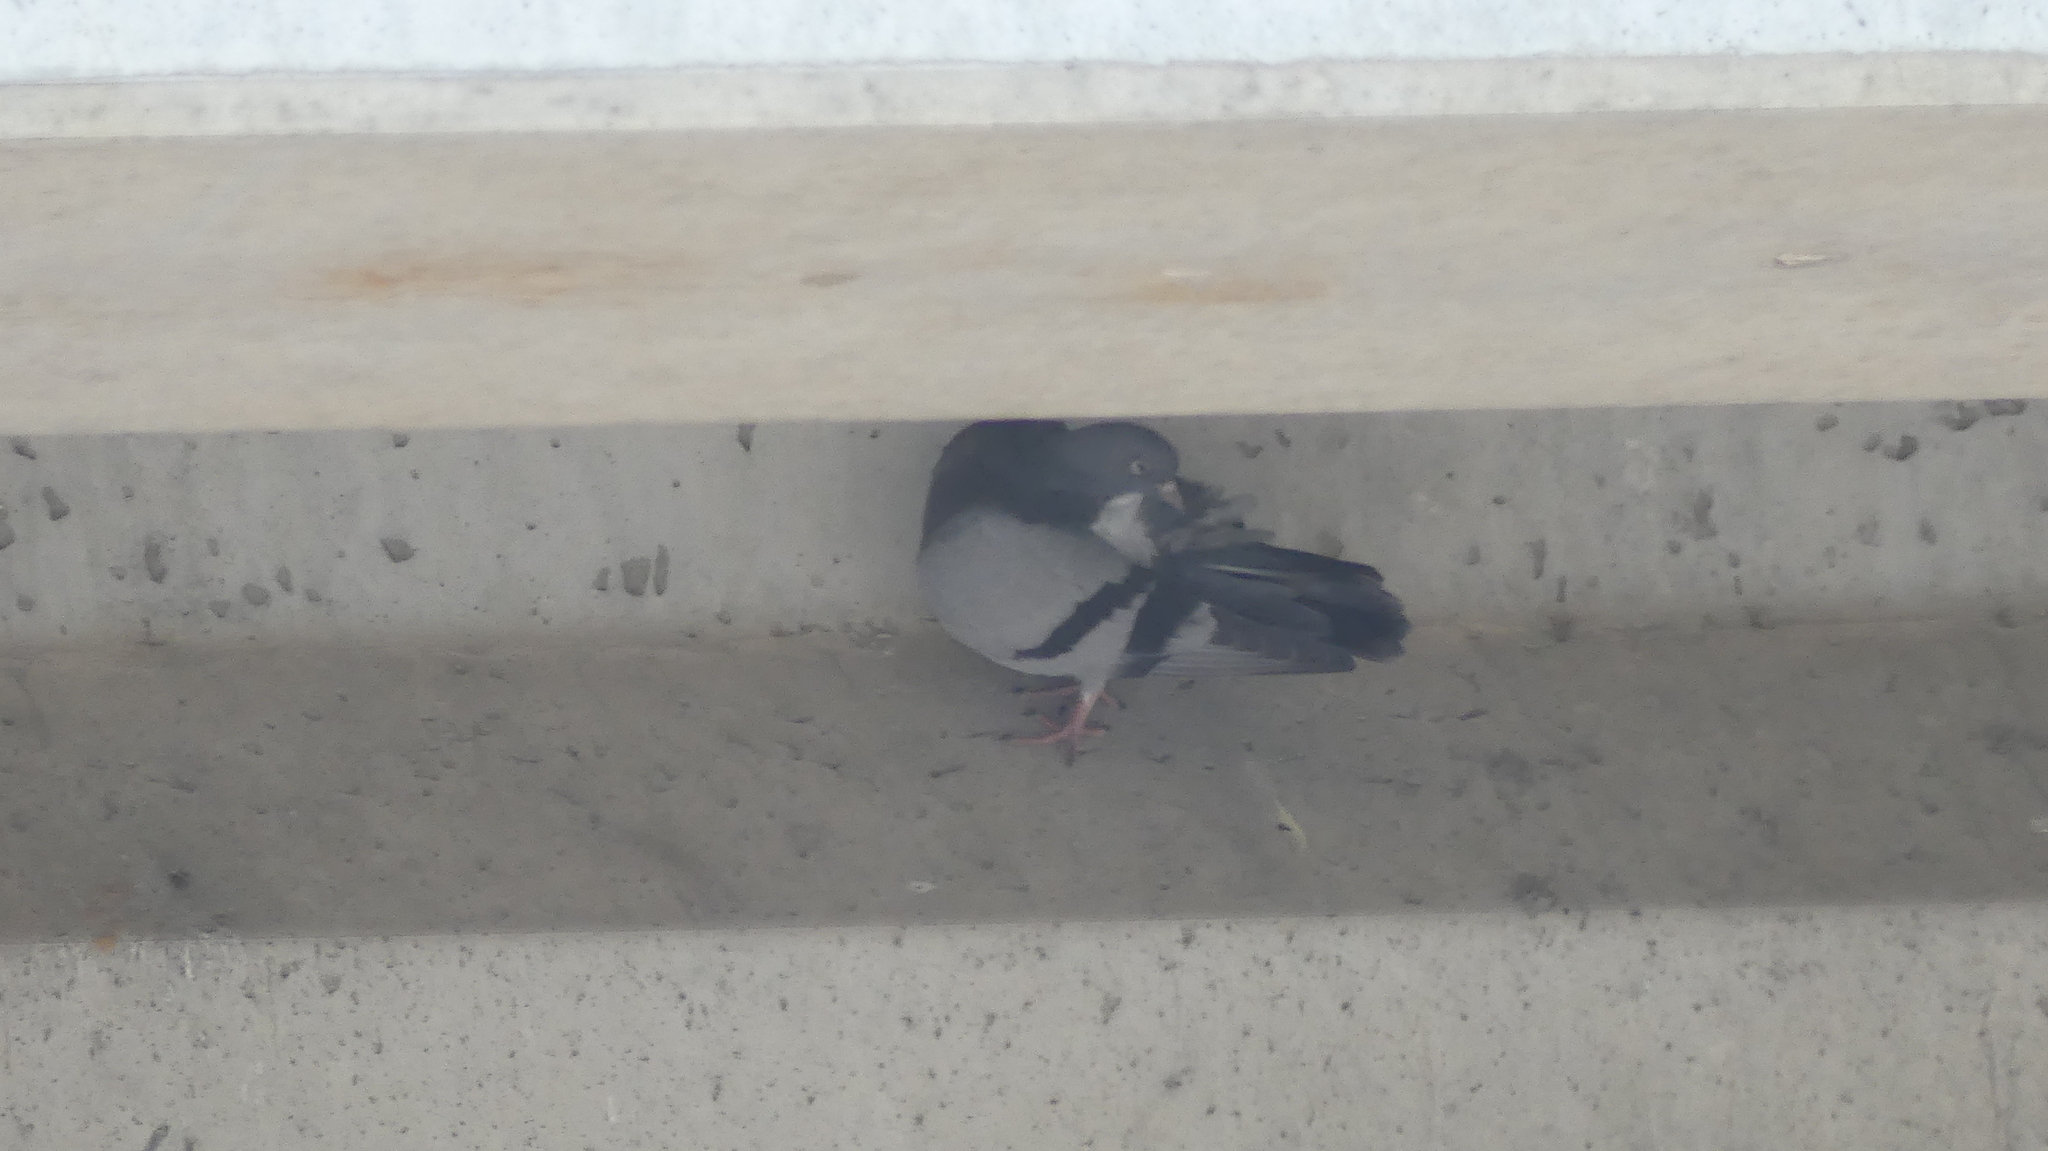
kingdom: Animalia
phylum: Chordata
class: Aves
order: Columbiformes
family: Columbidae
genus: Columba
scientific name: Columba livia
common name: Rock pigeon
